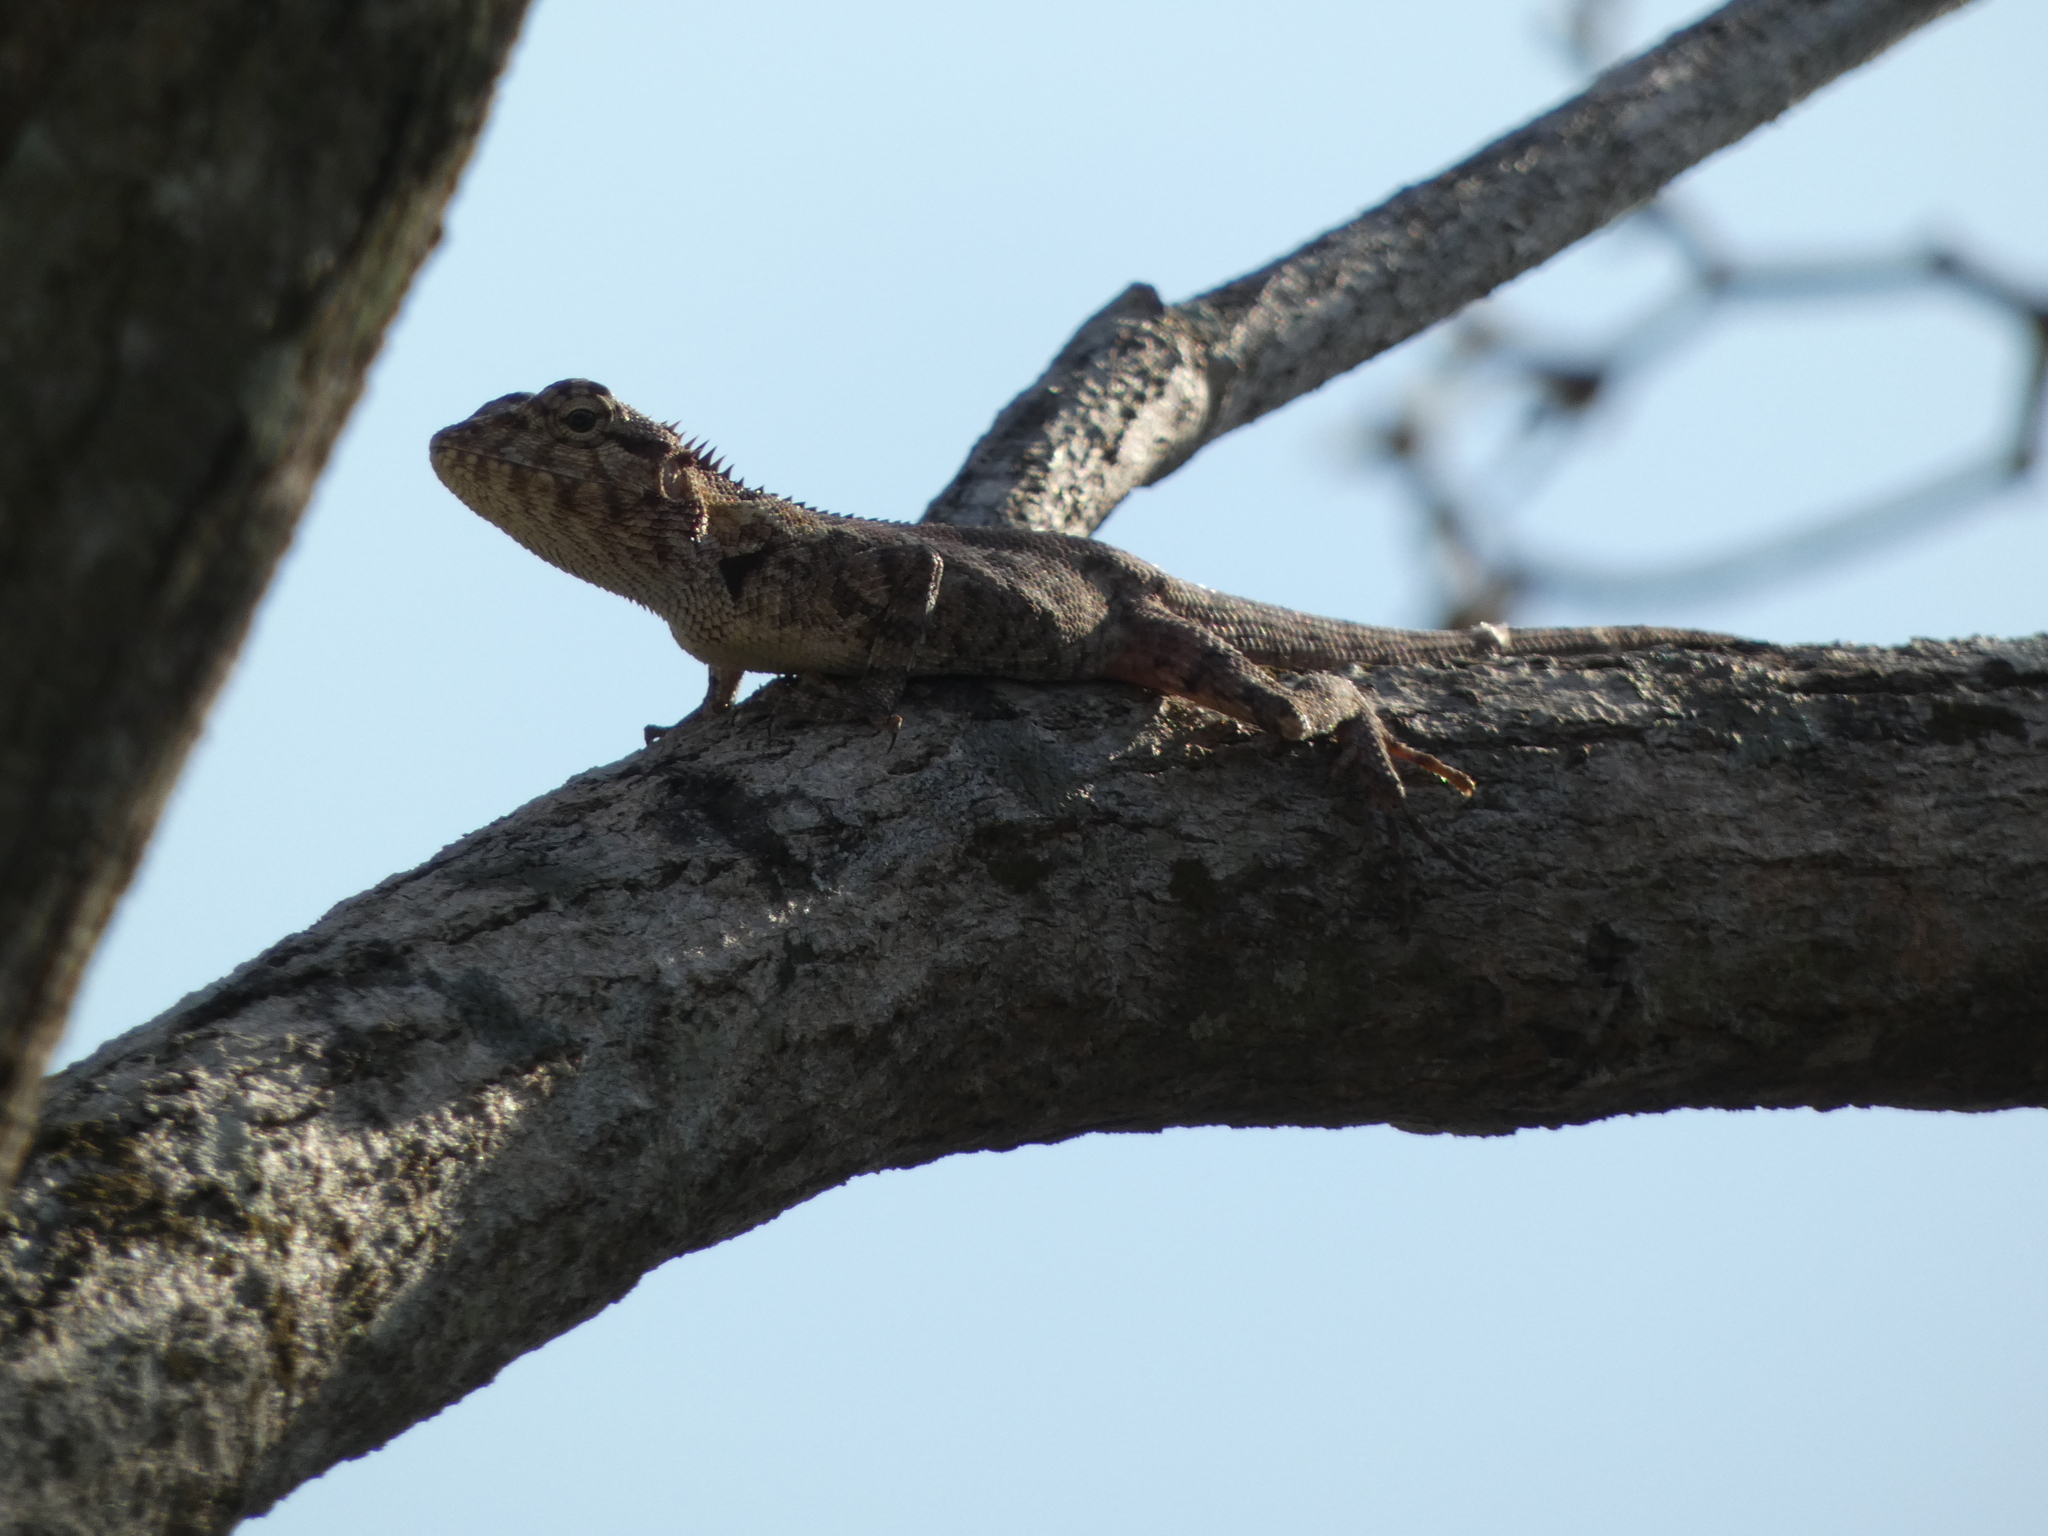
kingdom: Animalia
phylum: Chordata
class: Squamata
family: Agamidae
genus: Calotes
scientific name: Calotes goetzi
